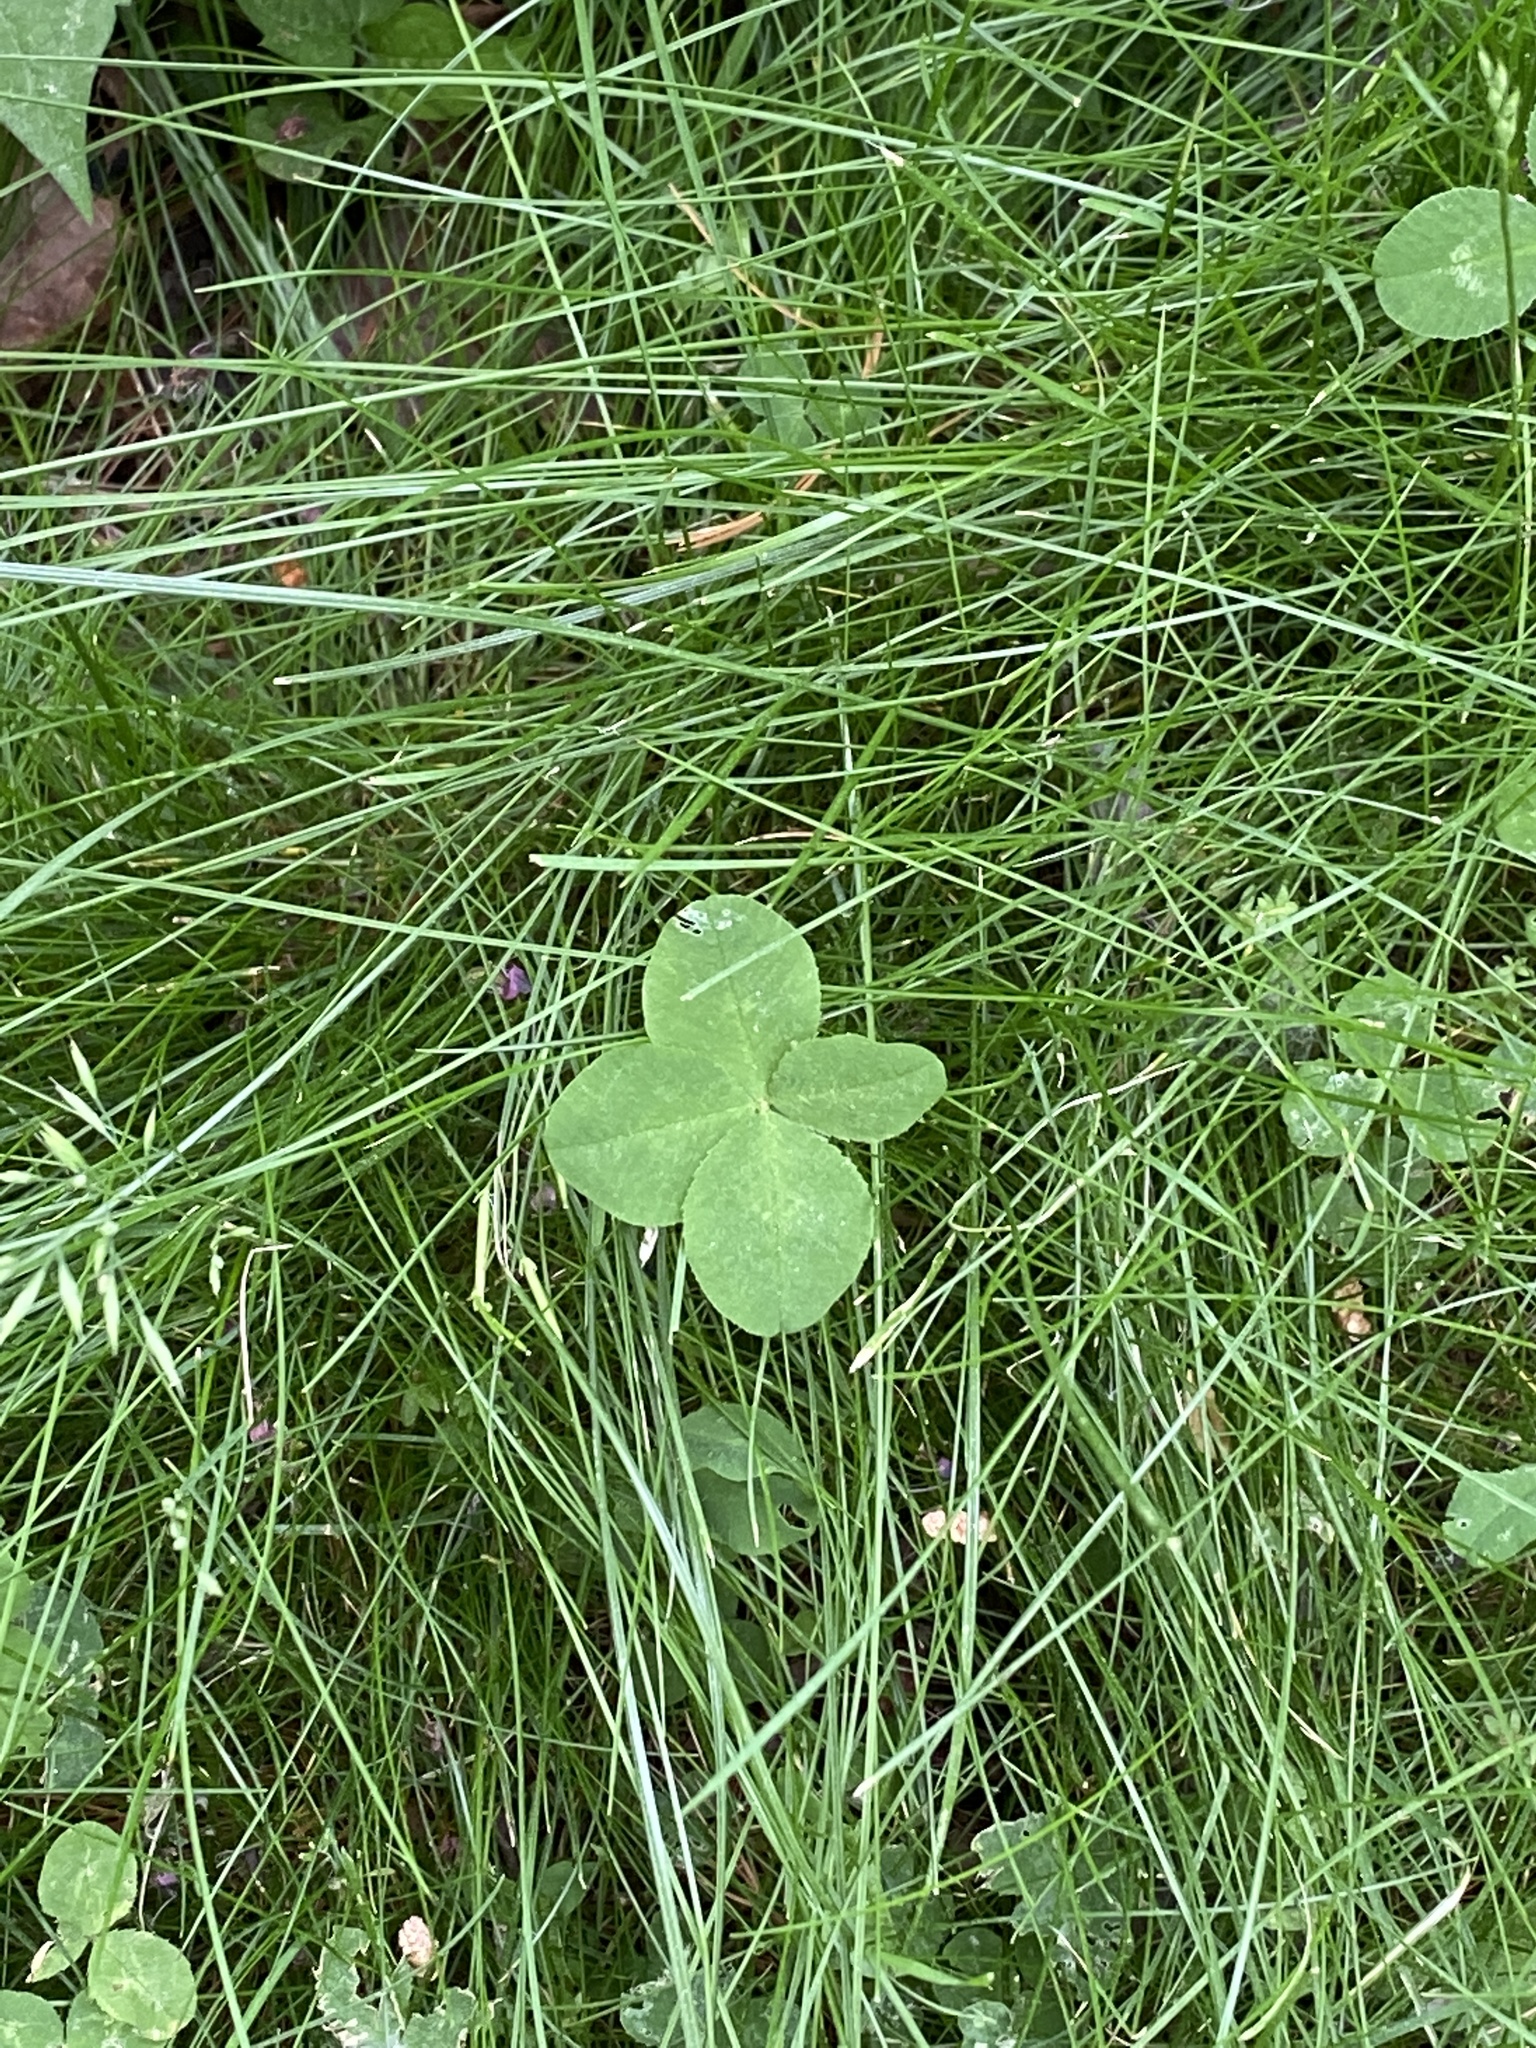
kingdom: Plantae
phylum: Tracheophyta
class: Magnoliopsida
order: Fabales
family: Fabaceae
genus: Trifolium
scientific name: Trifolium repens
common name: White clover
